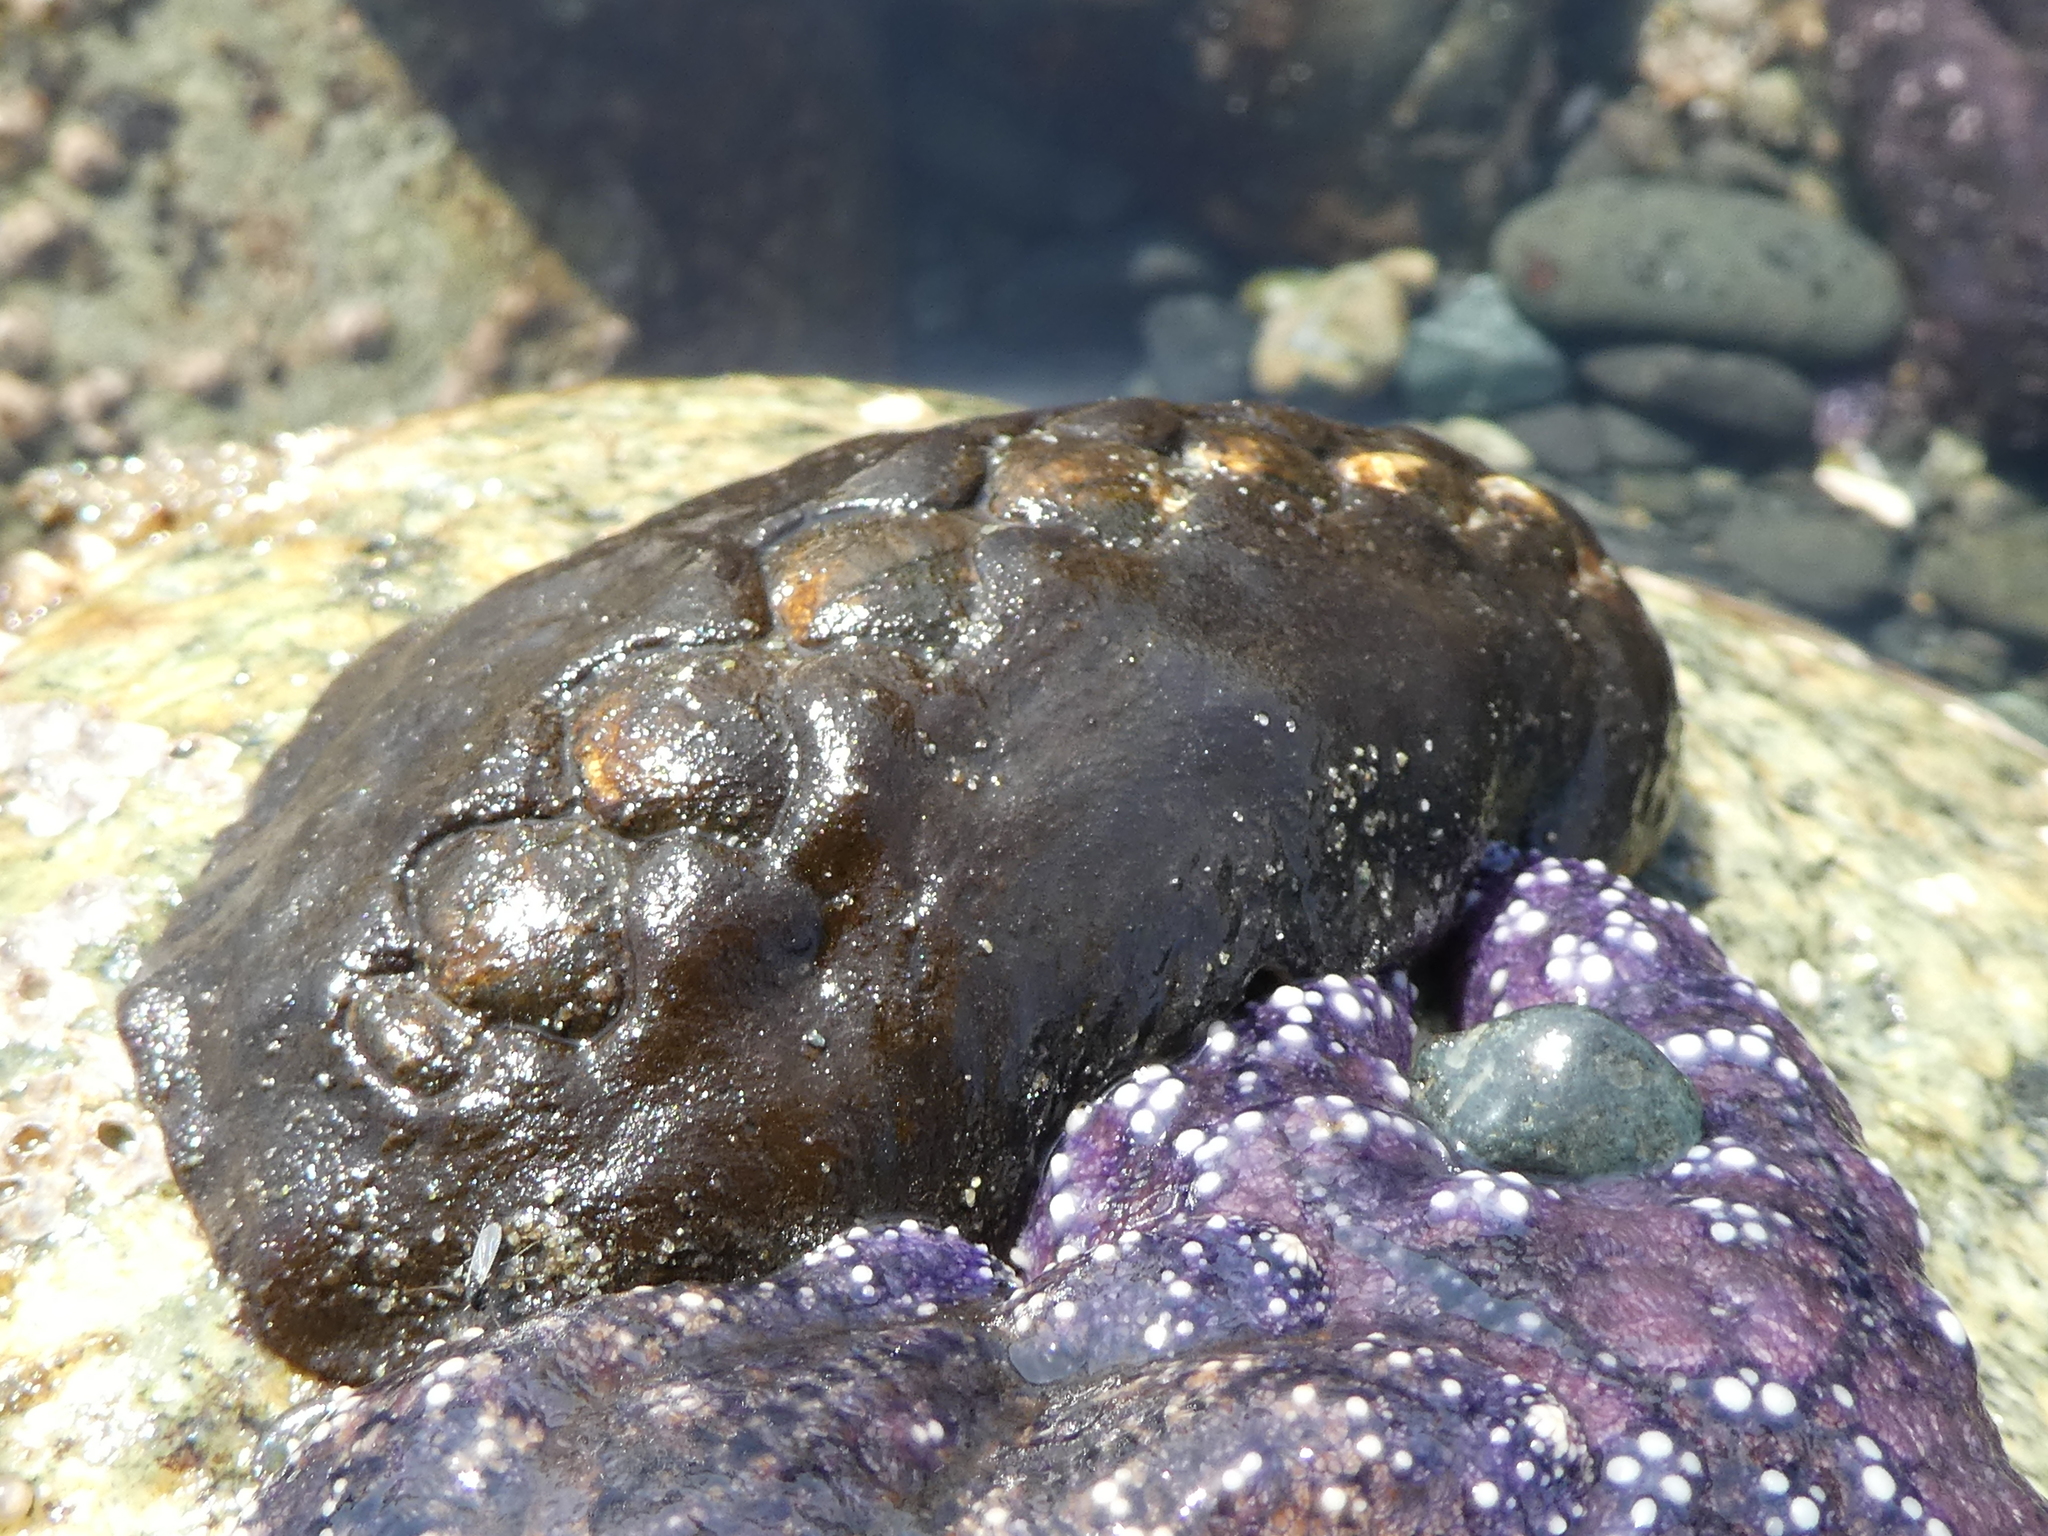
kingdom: Animalia
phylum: Mollusca
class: Polyplacophora
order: Chitonida
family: Mopaliidae
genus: Katharina
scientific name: Katharina tunicata
